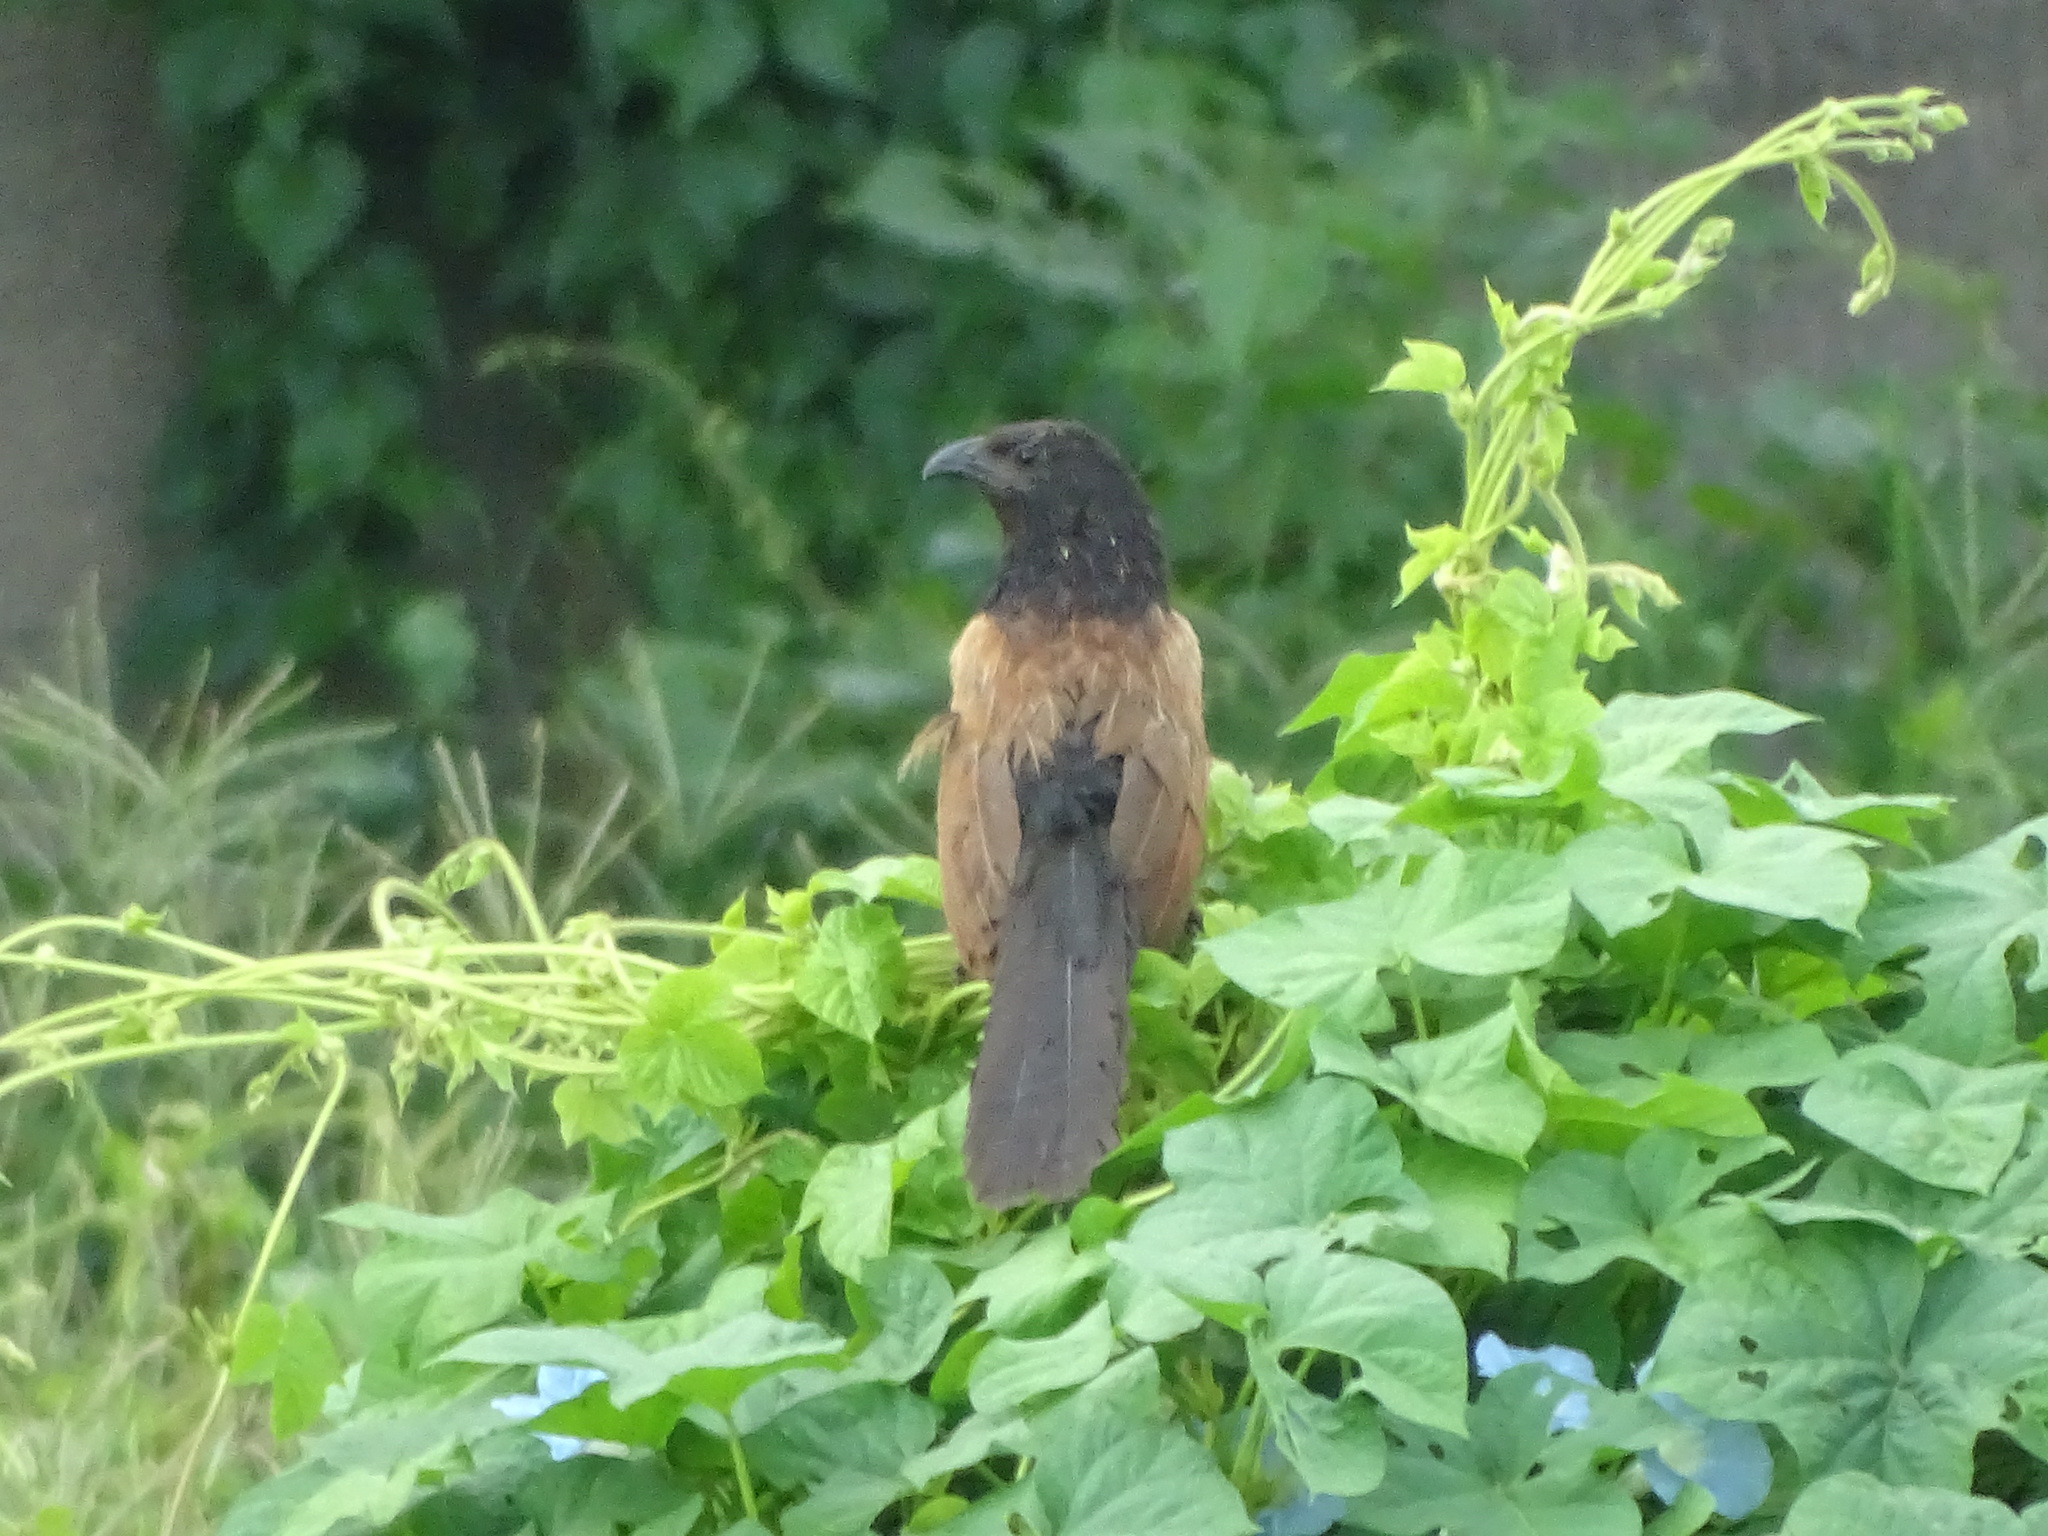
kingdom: Animalia
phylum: Chordata
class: Aves
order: Cuculiformes
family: Cuculidae
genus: Centropus
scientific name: Centropus bengalensis
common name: Lesser coucal
